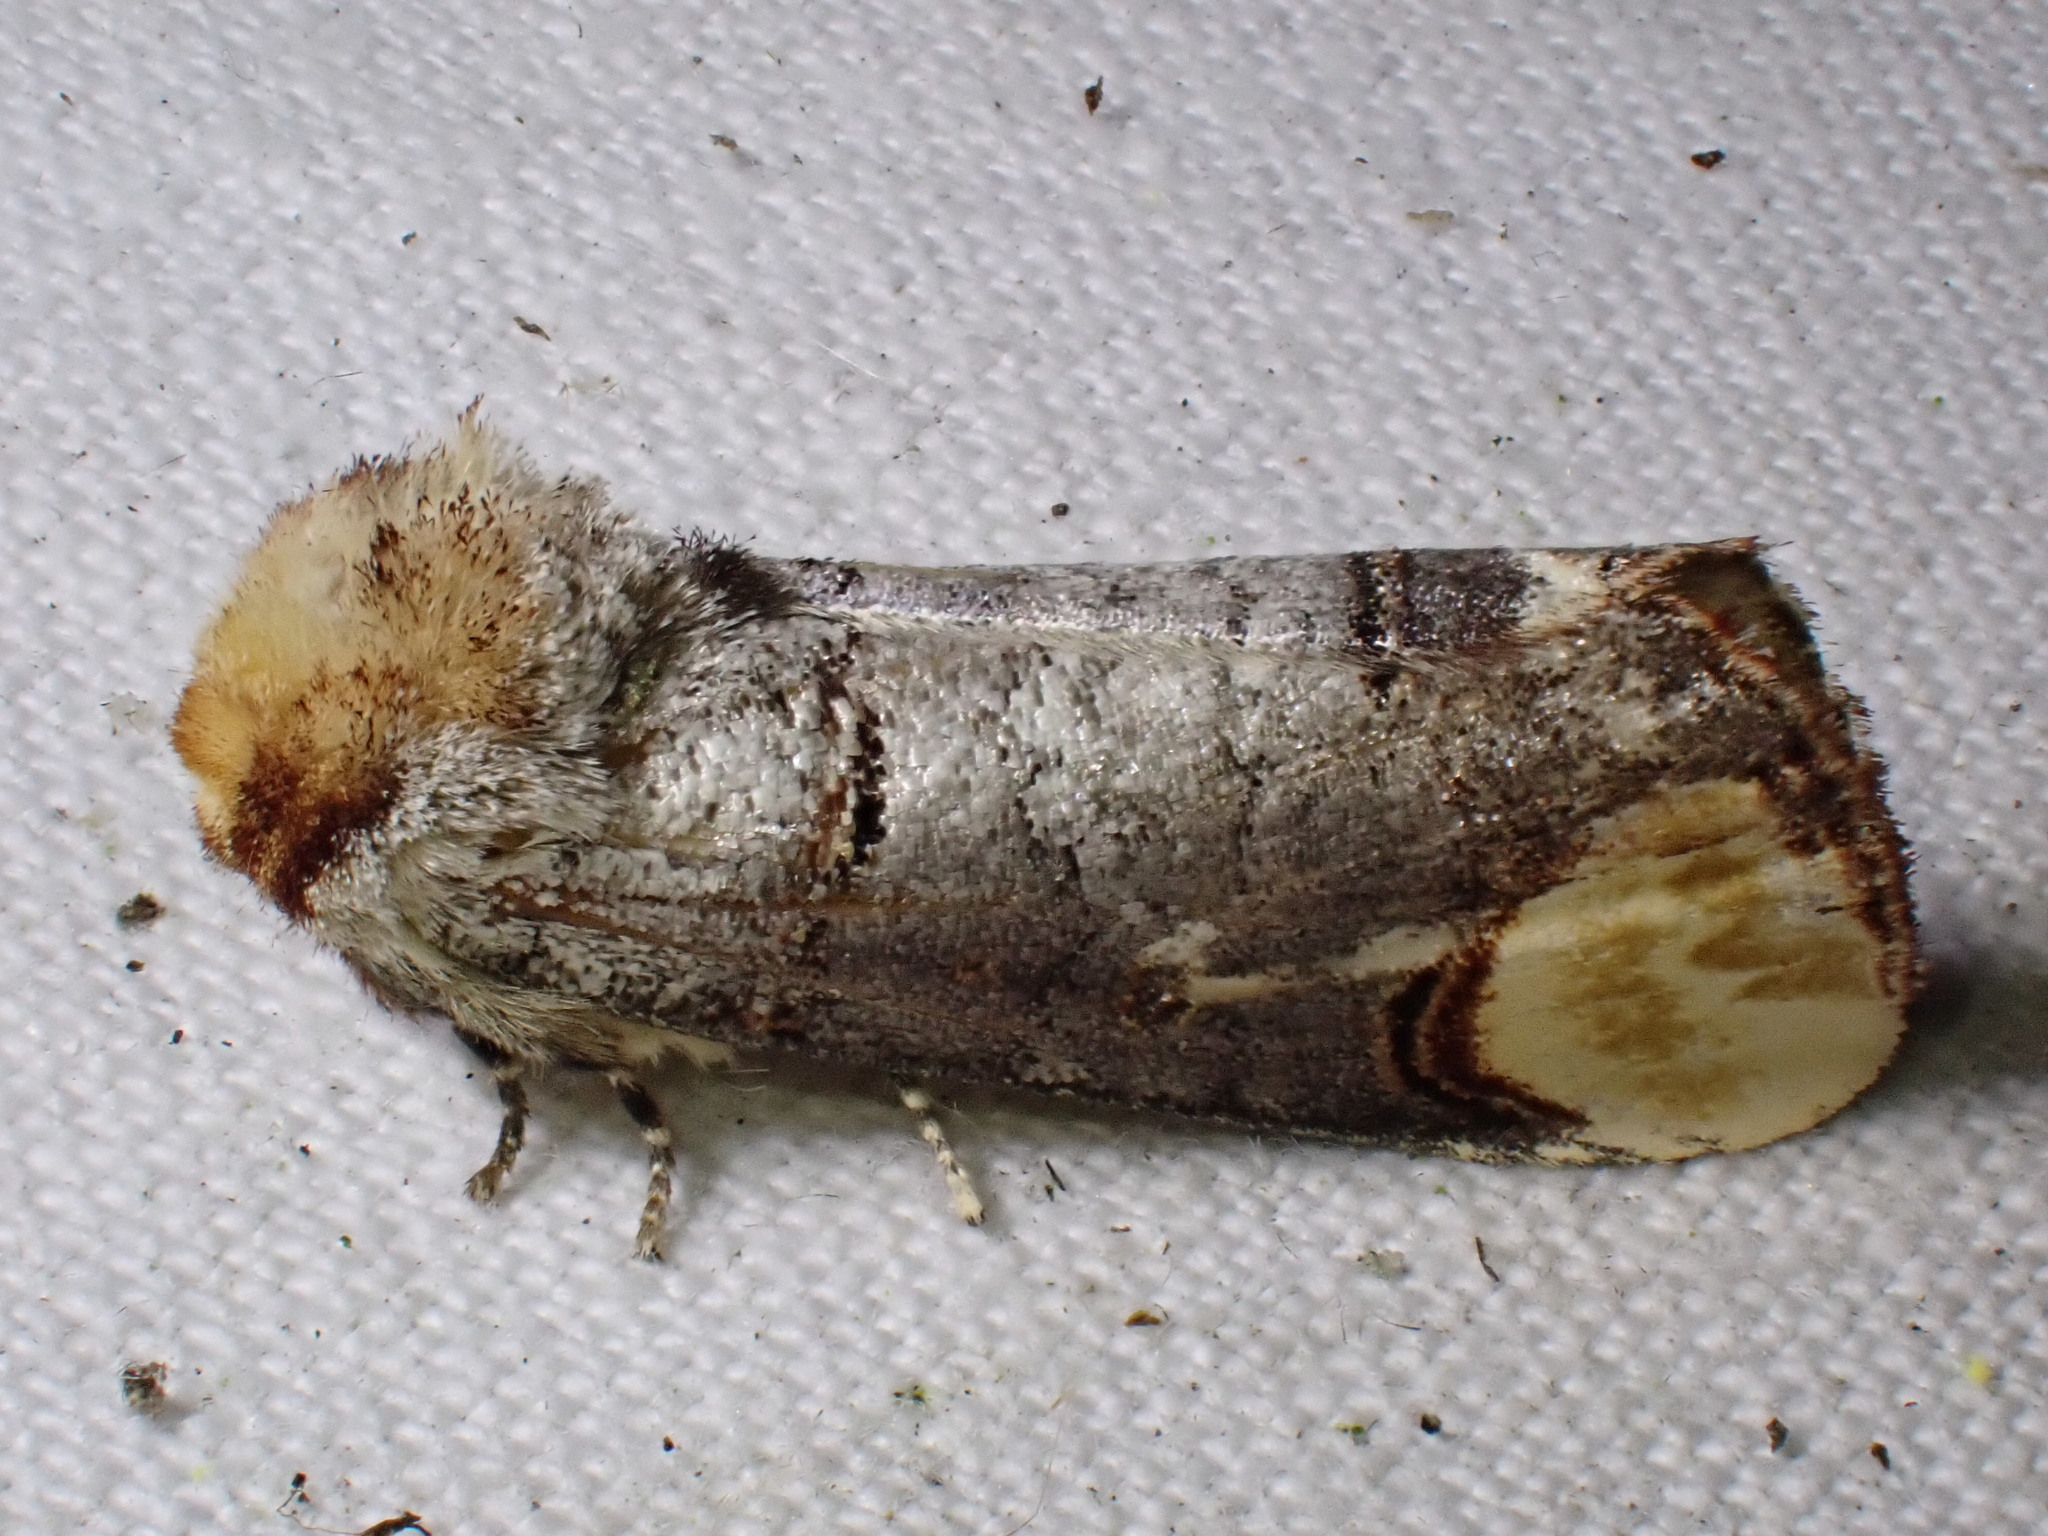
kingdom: Animalia
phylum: Arthropoda
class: Insecta
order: Lepidoptera
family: Notodontidae
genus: Phalera
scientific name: Phalera bucephala
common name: Buff-tip
